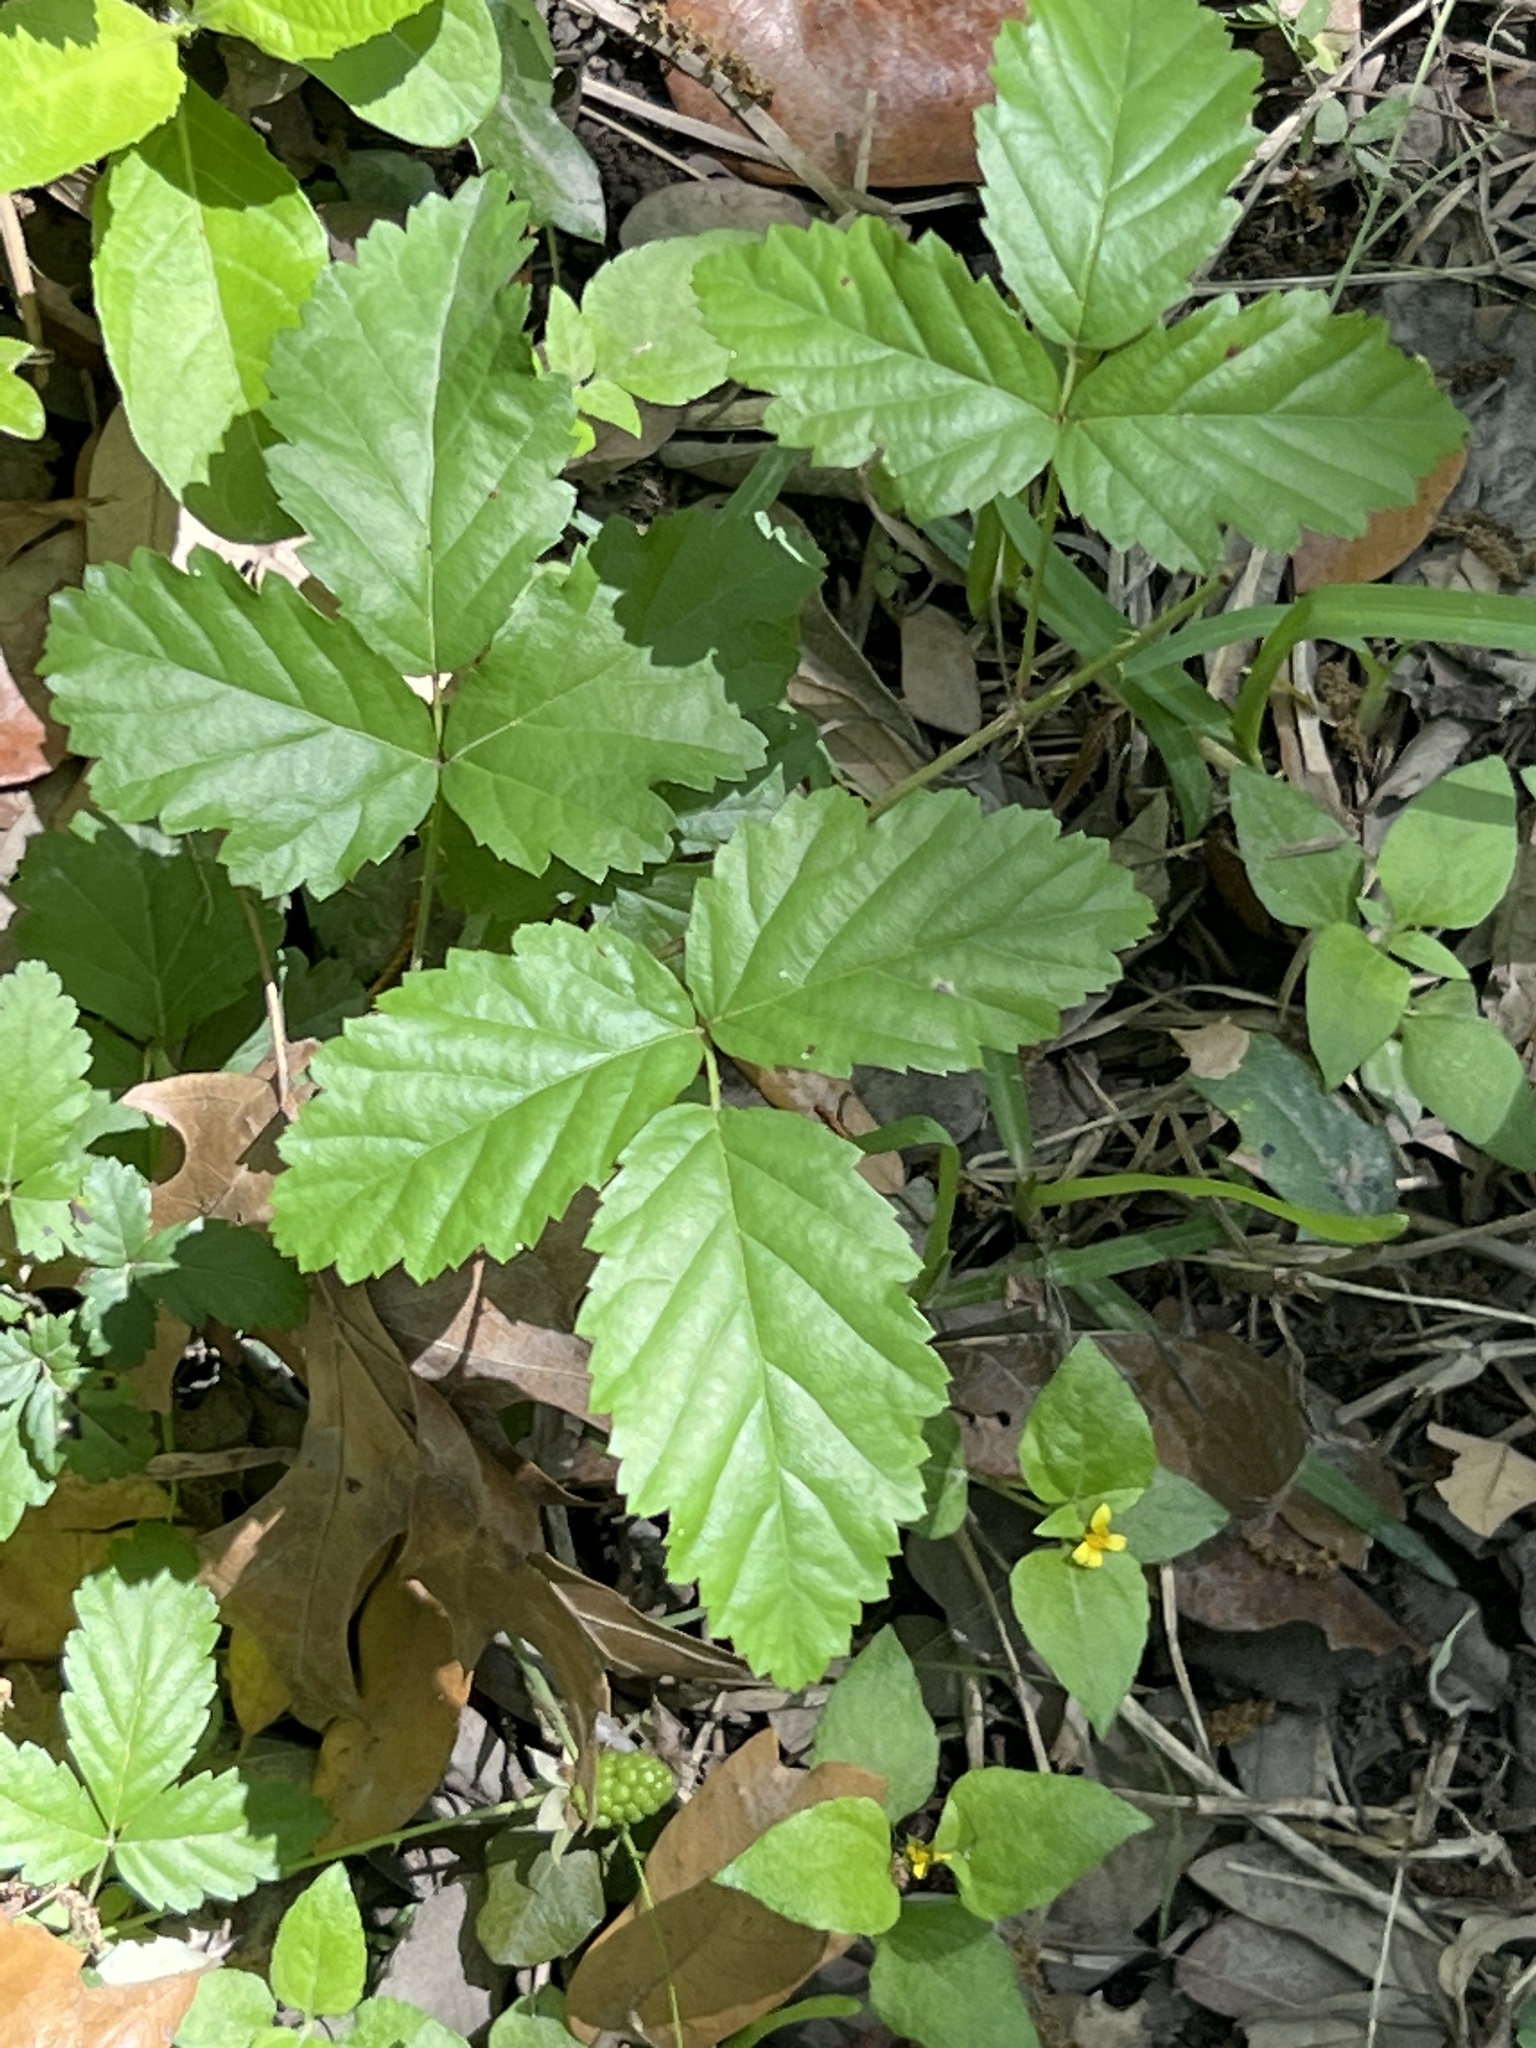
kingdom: Plantae
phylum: Tracheophyta
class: Magnoliopsida
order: Rosales
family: Rosaceae
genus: Rubus
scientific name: Rubus trivialis
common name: Southern dewberry
